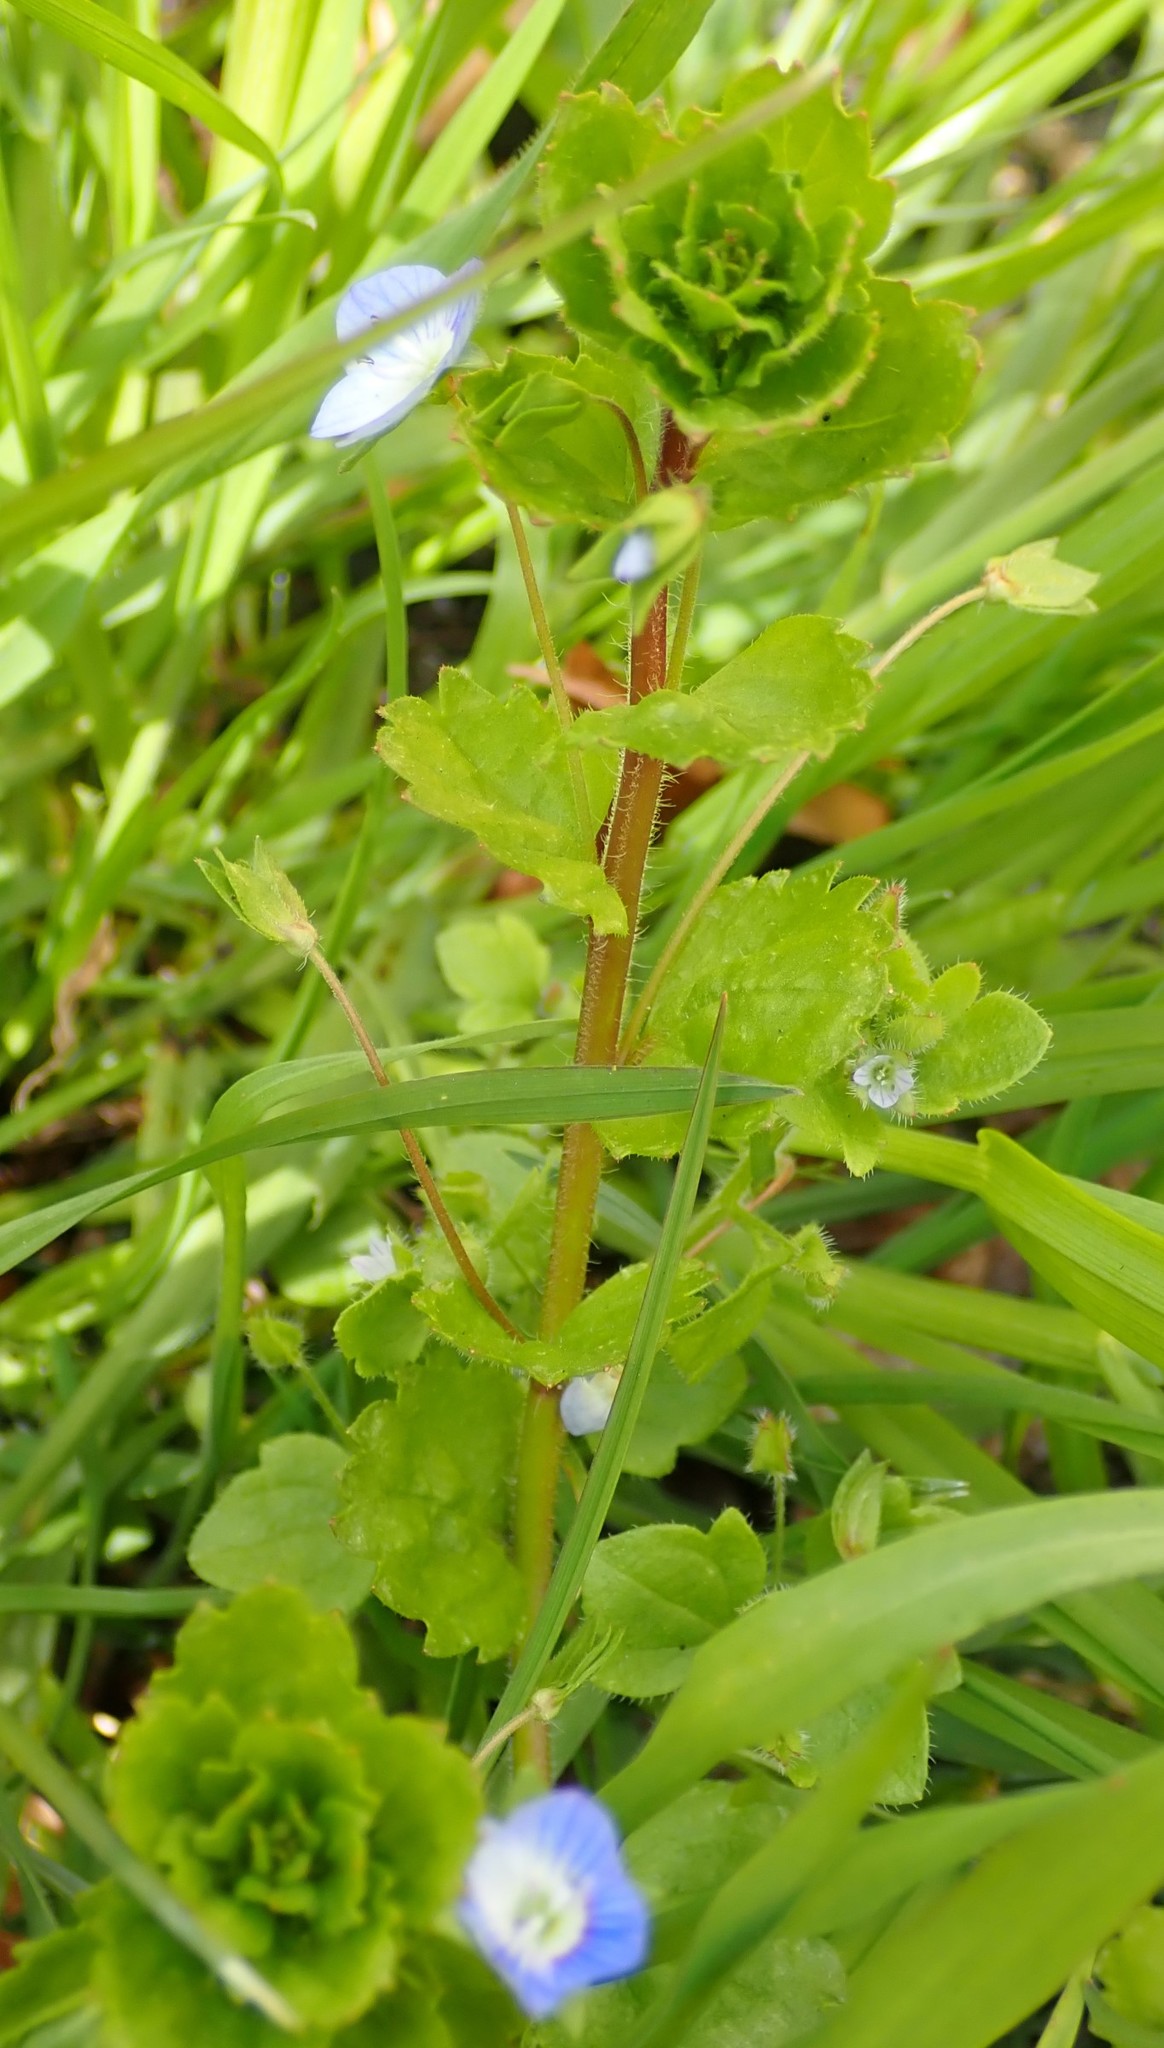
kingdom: Plantae
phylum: Tracheophyta
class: Magnoliopsida
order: Lamiales
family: Plantaginaceae
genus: Veronica
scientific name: Veronica persica
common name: Common field-speedwell
